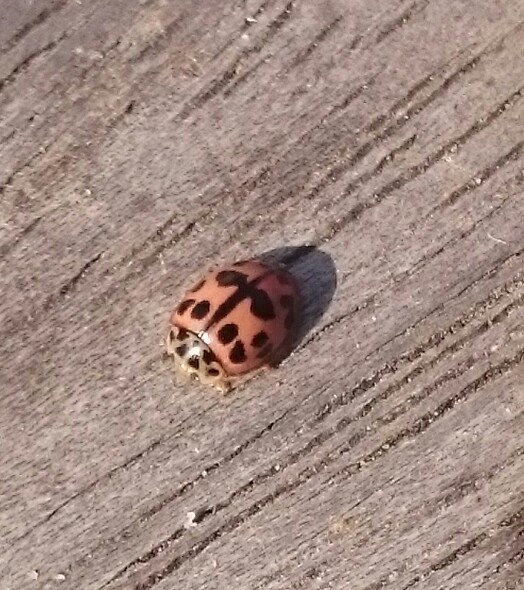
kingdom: Animalia
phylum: Arthropoda
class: Insecta
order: Coleoptera
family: Coccinellidae
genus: Oenopia
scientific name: Oenopia conglobata
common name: Ladybird beetle
